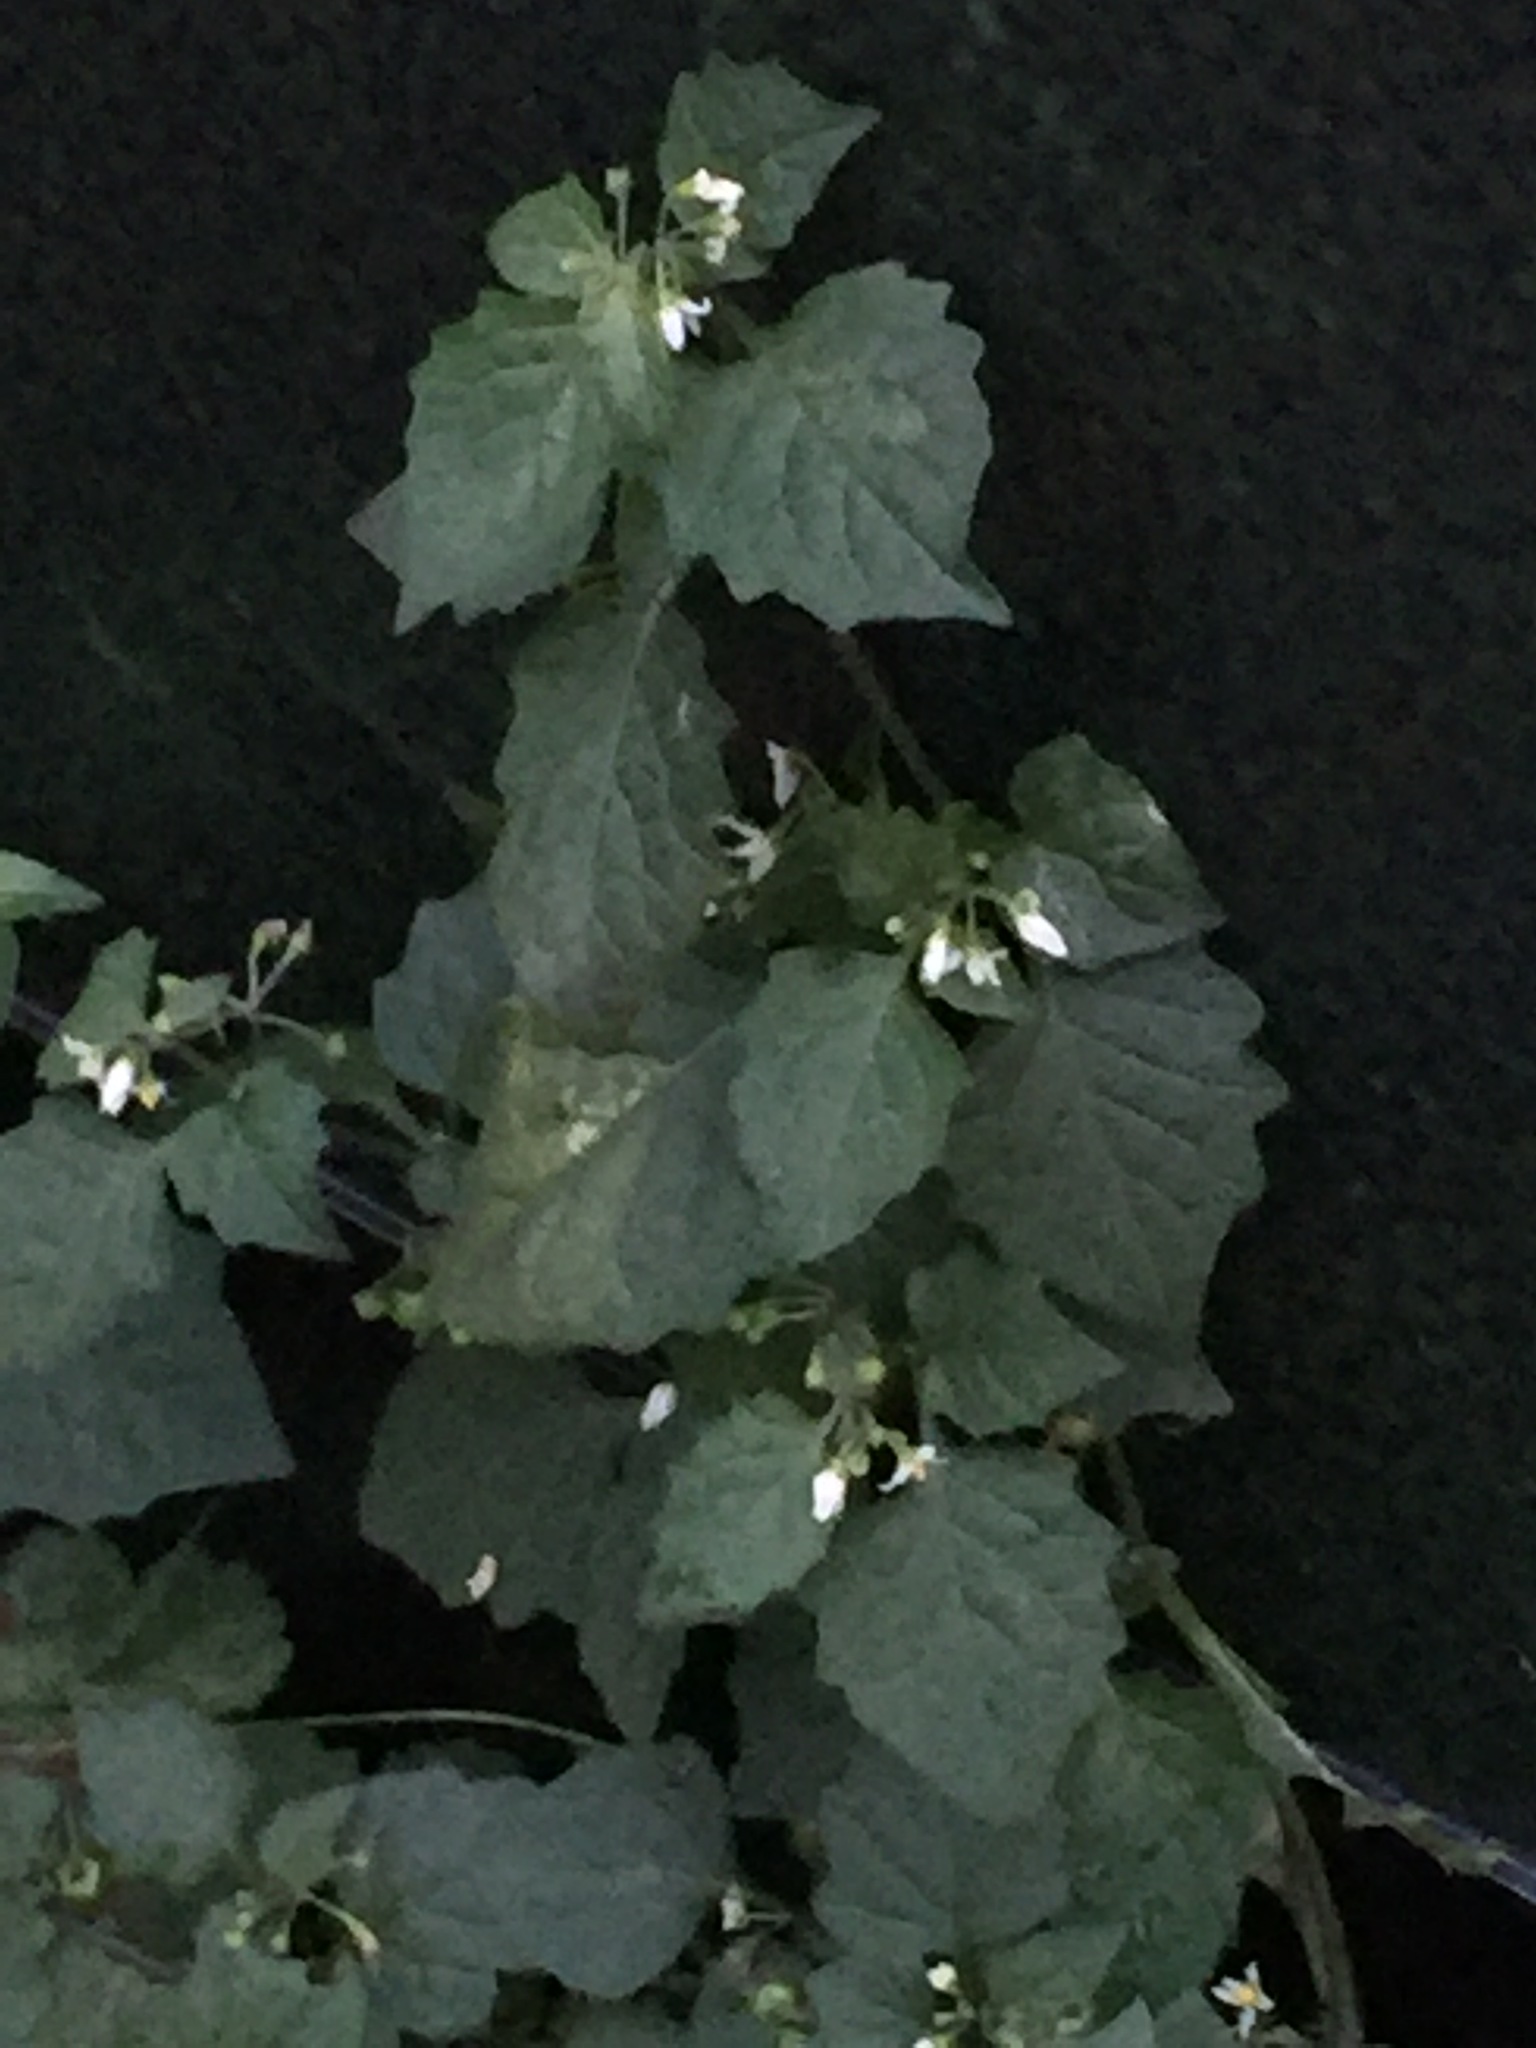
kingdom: Plantae
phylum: Tracheophyta
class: Magnoliopsida
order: Solanales
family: Solanaceae
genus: Solanum
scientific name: Solanum nigrum
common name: Black nightshade
